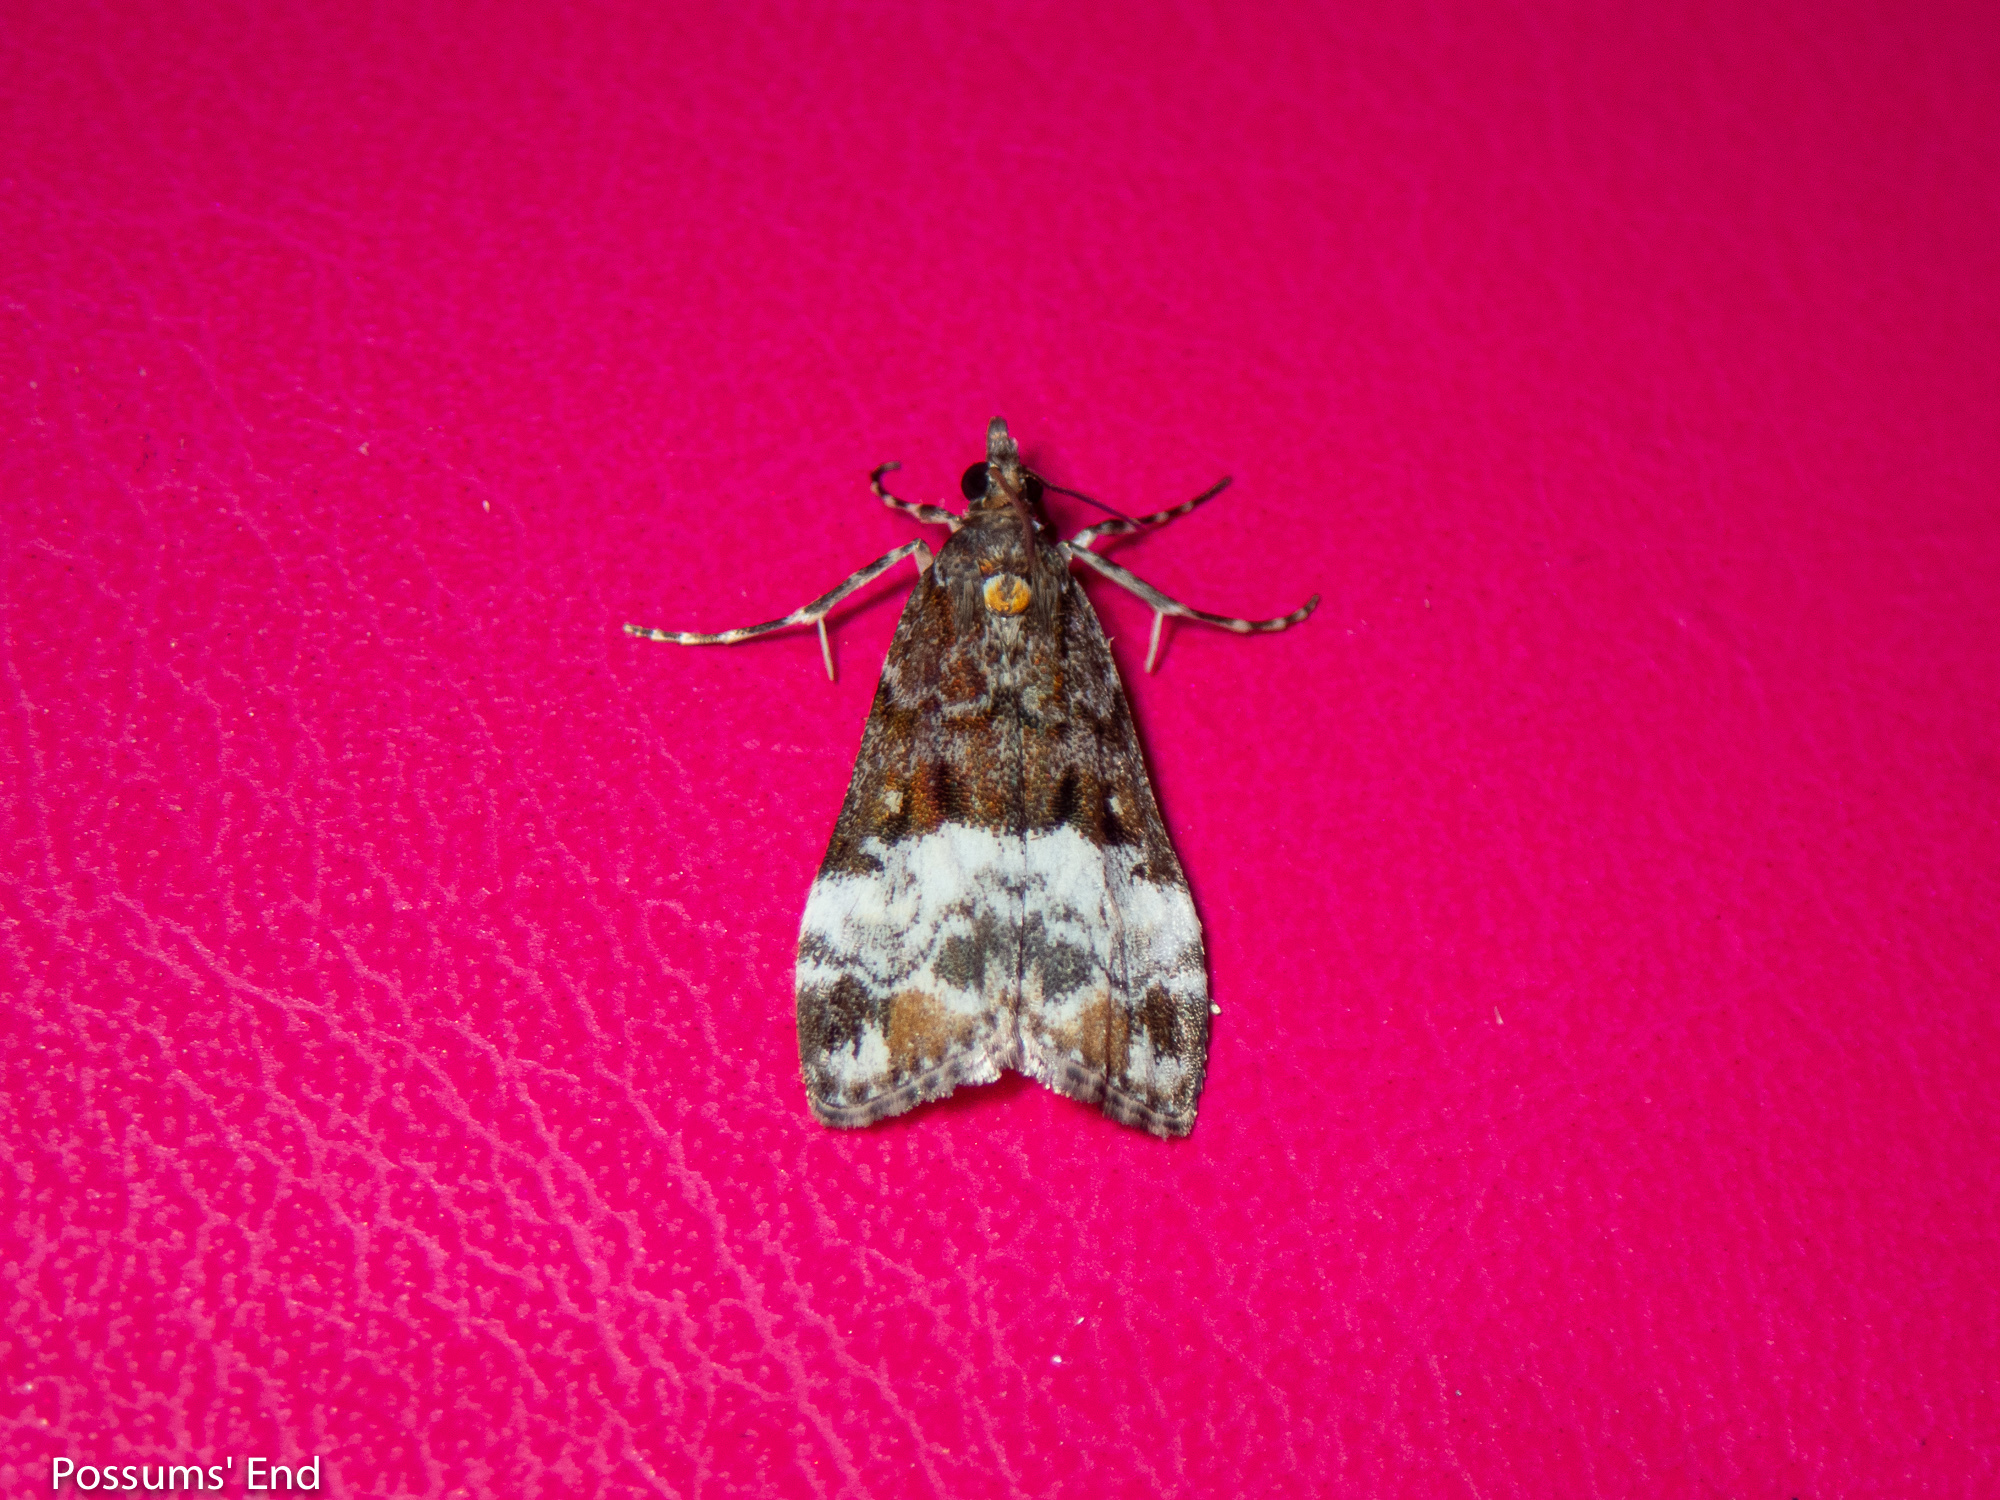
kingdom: Animalia
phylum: Arthropoda
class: Insecta
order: Lepidoptera
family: Crambidae
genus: Scoparia
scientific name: Scoparia minusculalis
